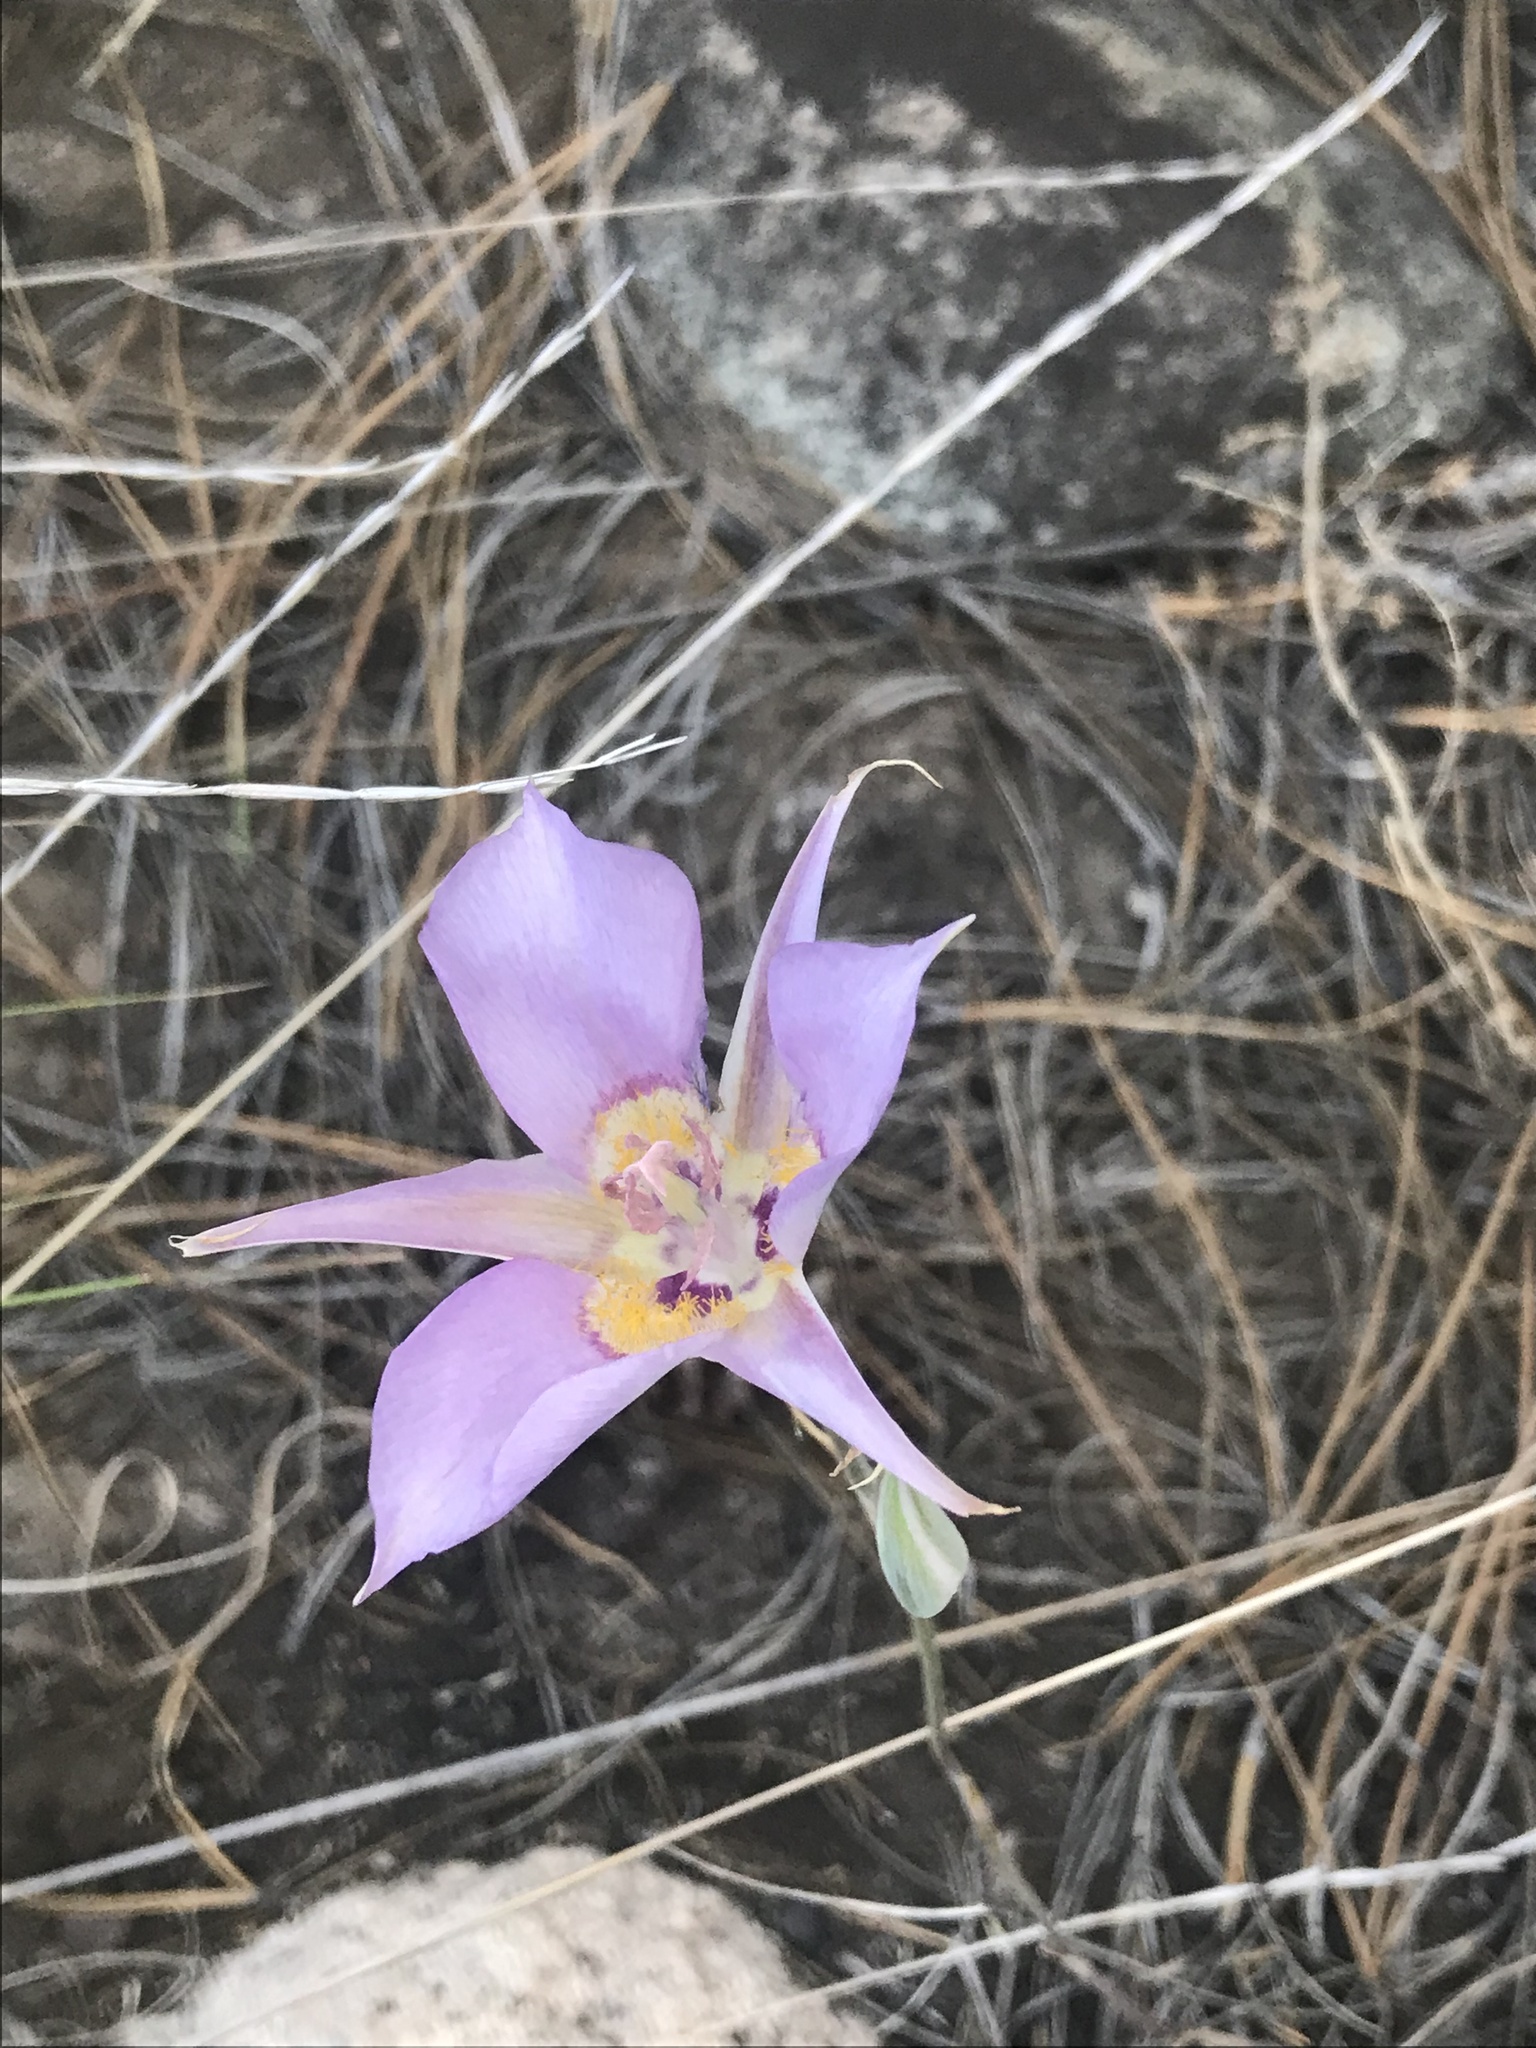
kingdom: Plantae
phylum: Tracheophyta
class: Liliopsida
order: Liliales
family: Liliaceae
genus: Calochortus
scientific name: Calochortus macrocarpus
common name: Green-band mariposa lily
